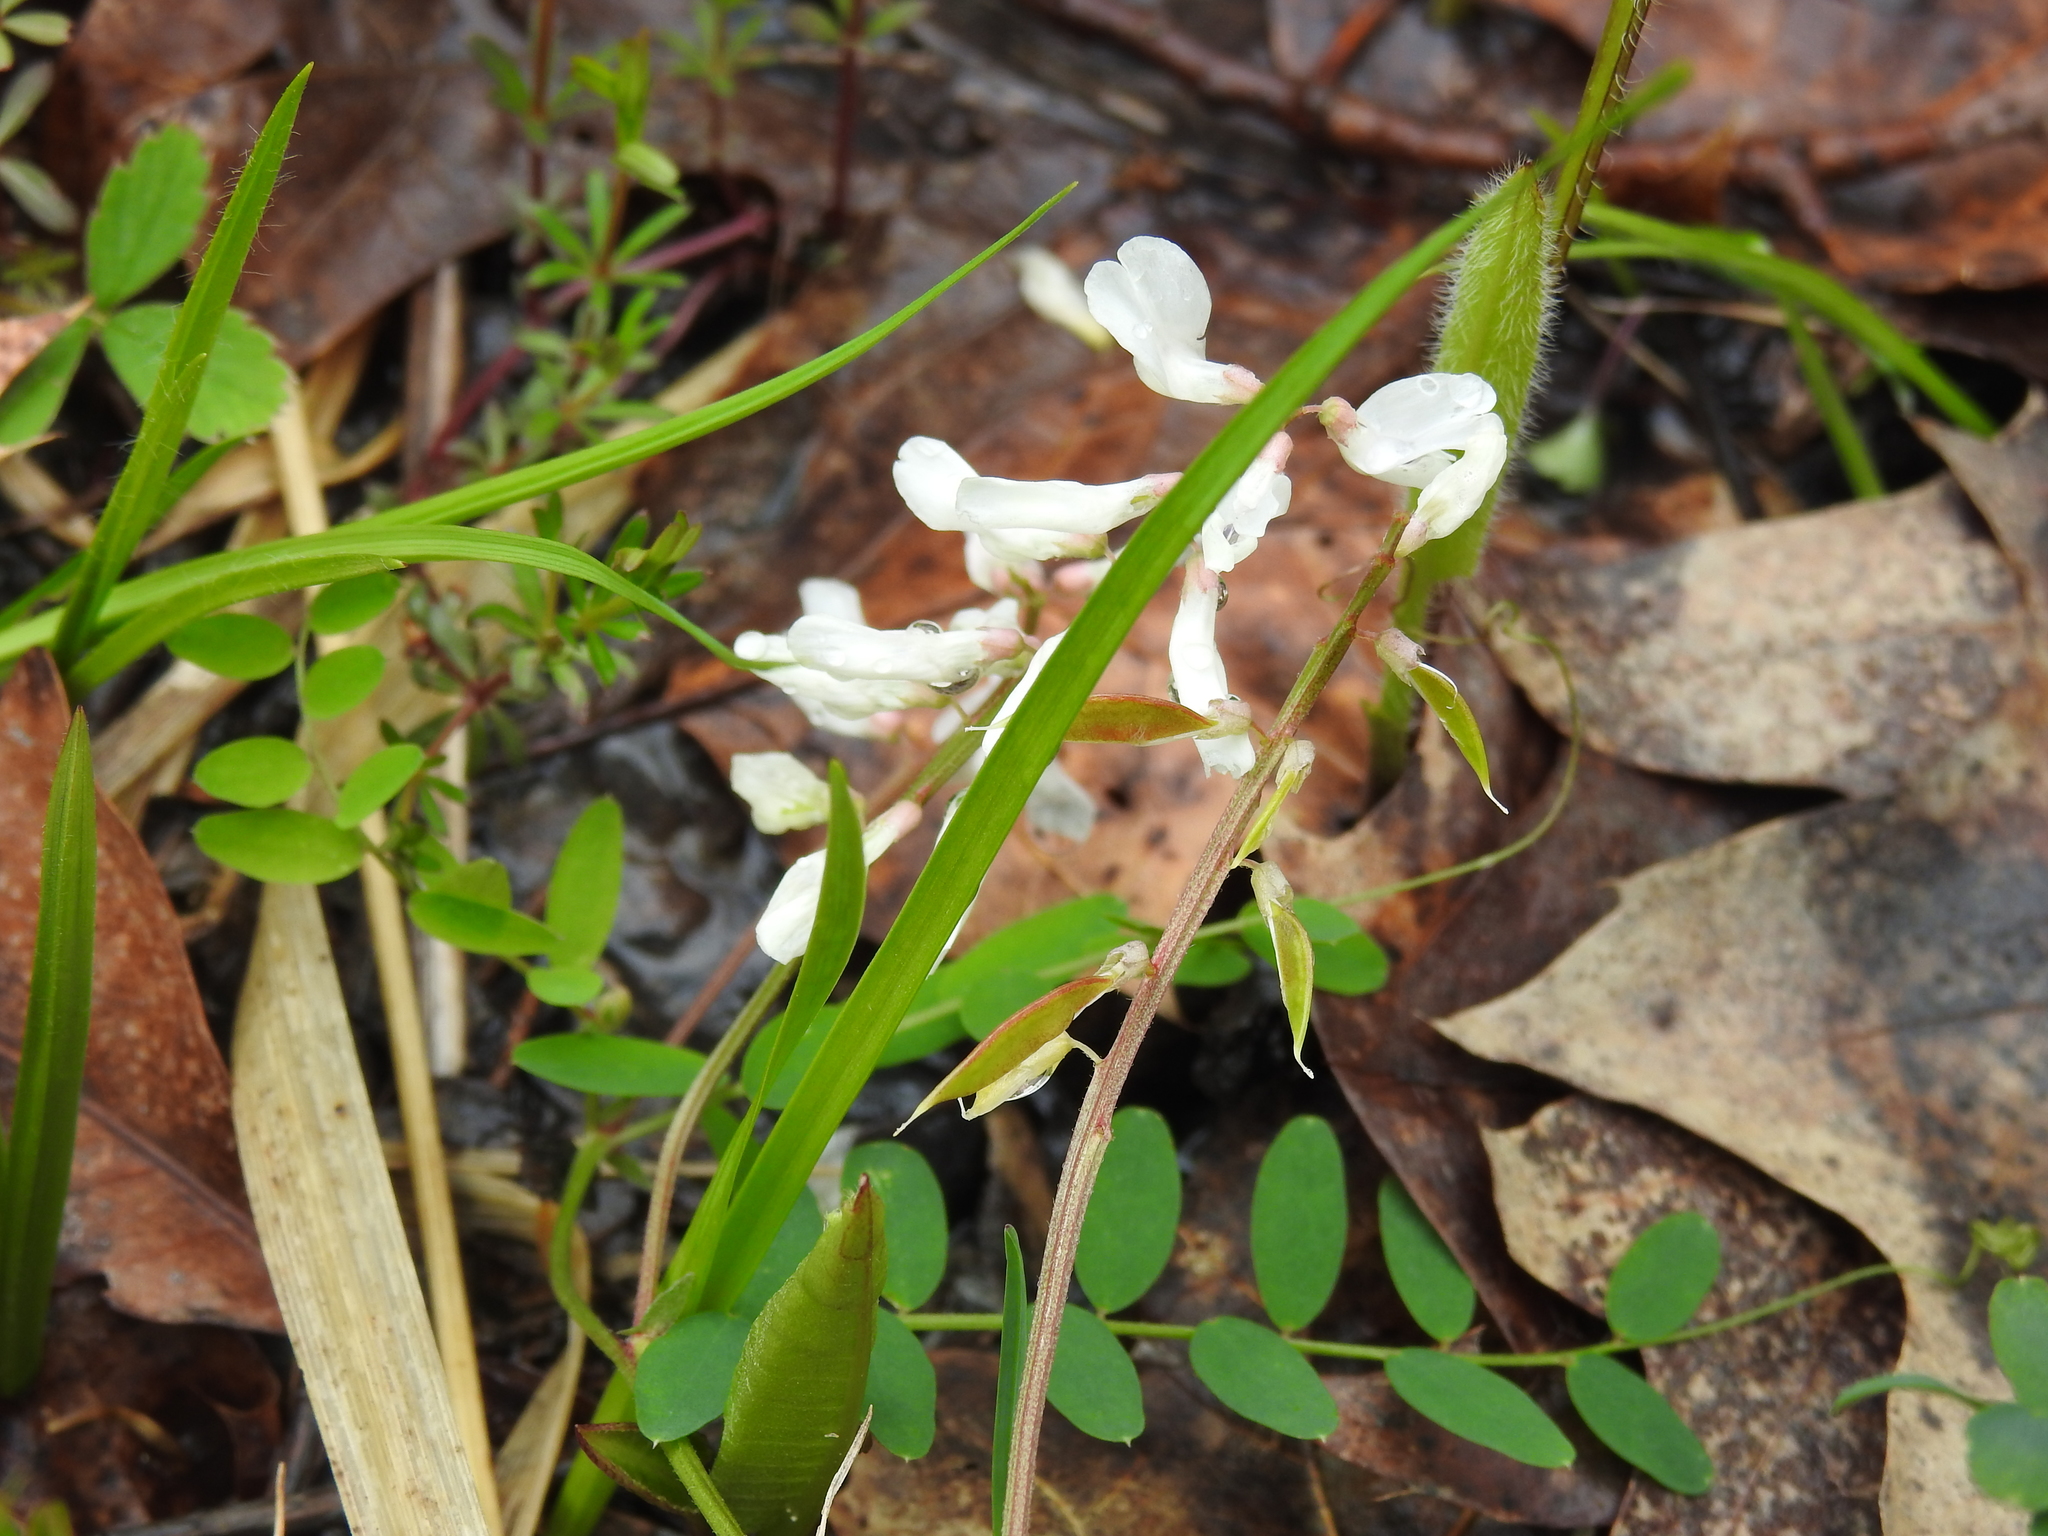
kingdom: Plantae
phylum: Tracheophyta
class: Magnoliopsida
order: Fabales
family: Fabaceae
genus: Vicia
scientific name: Vicia caroliniana
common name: Carolina vetch
